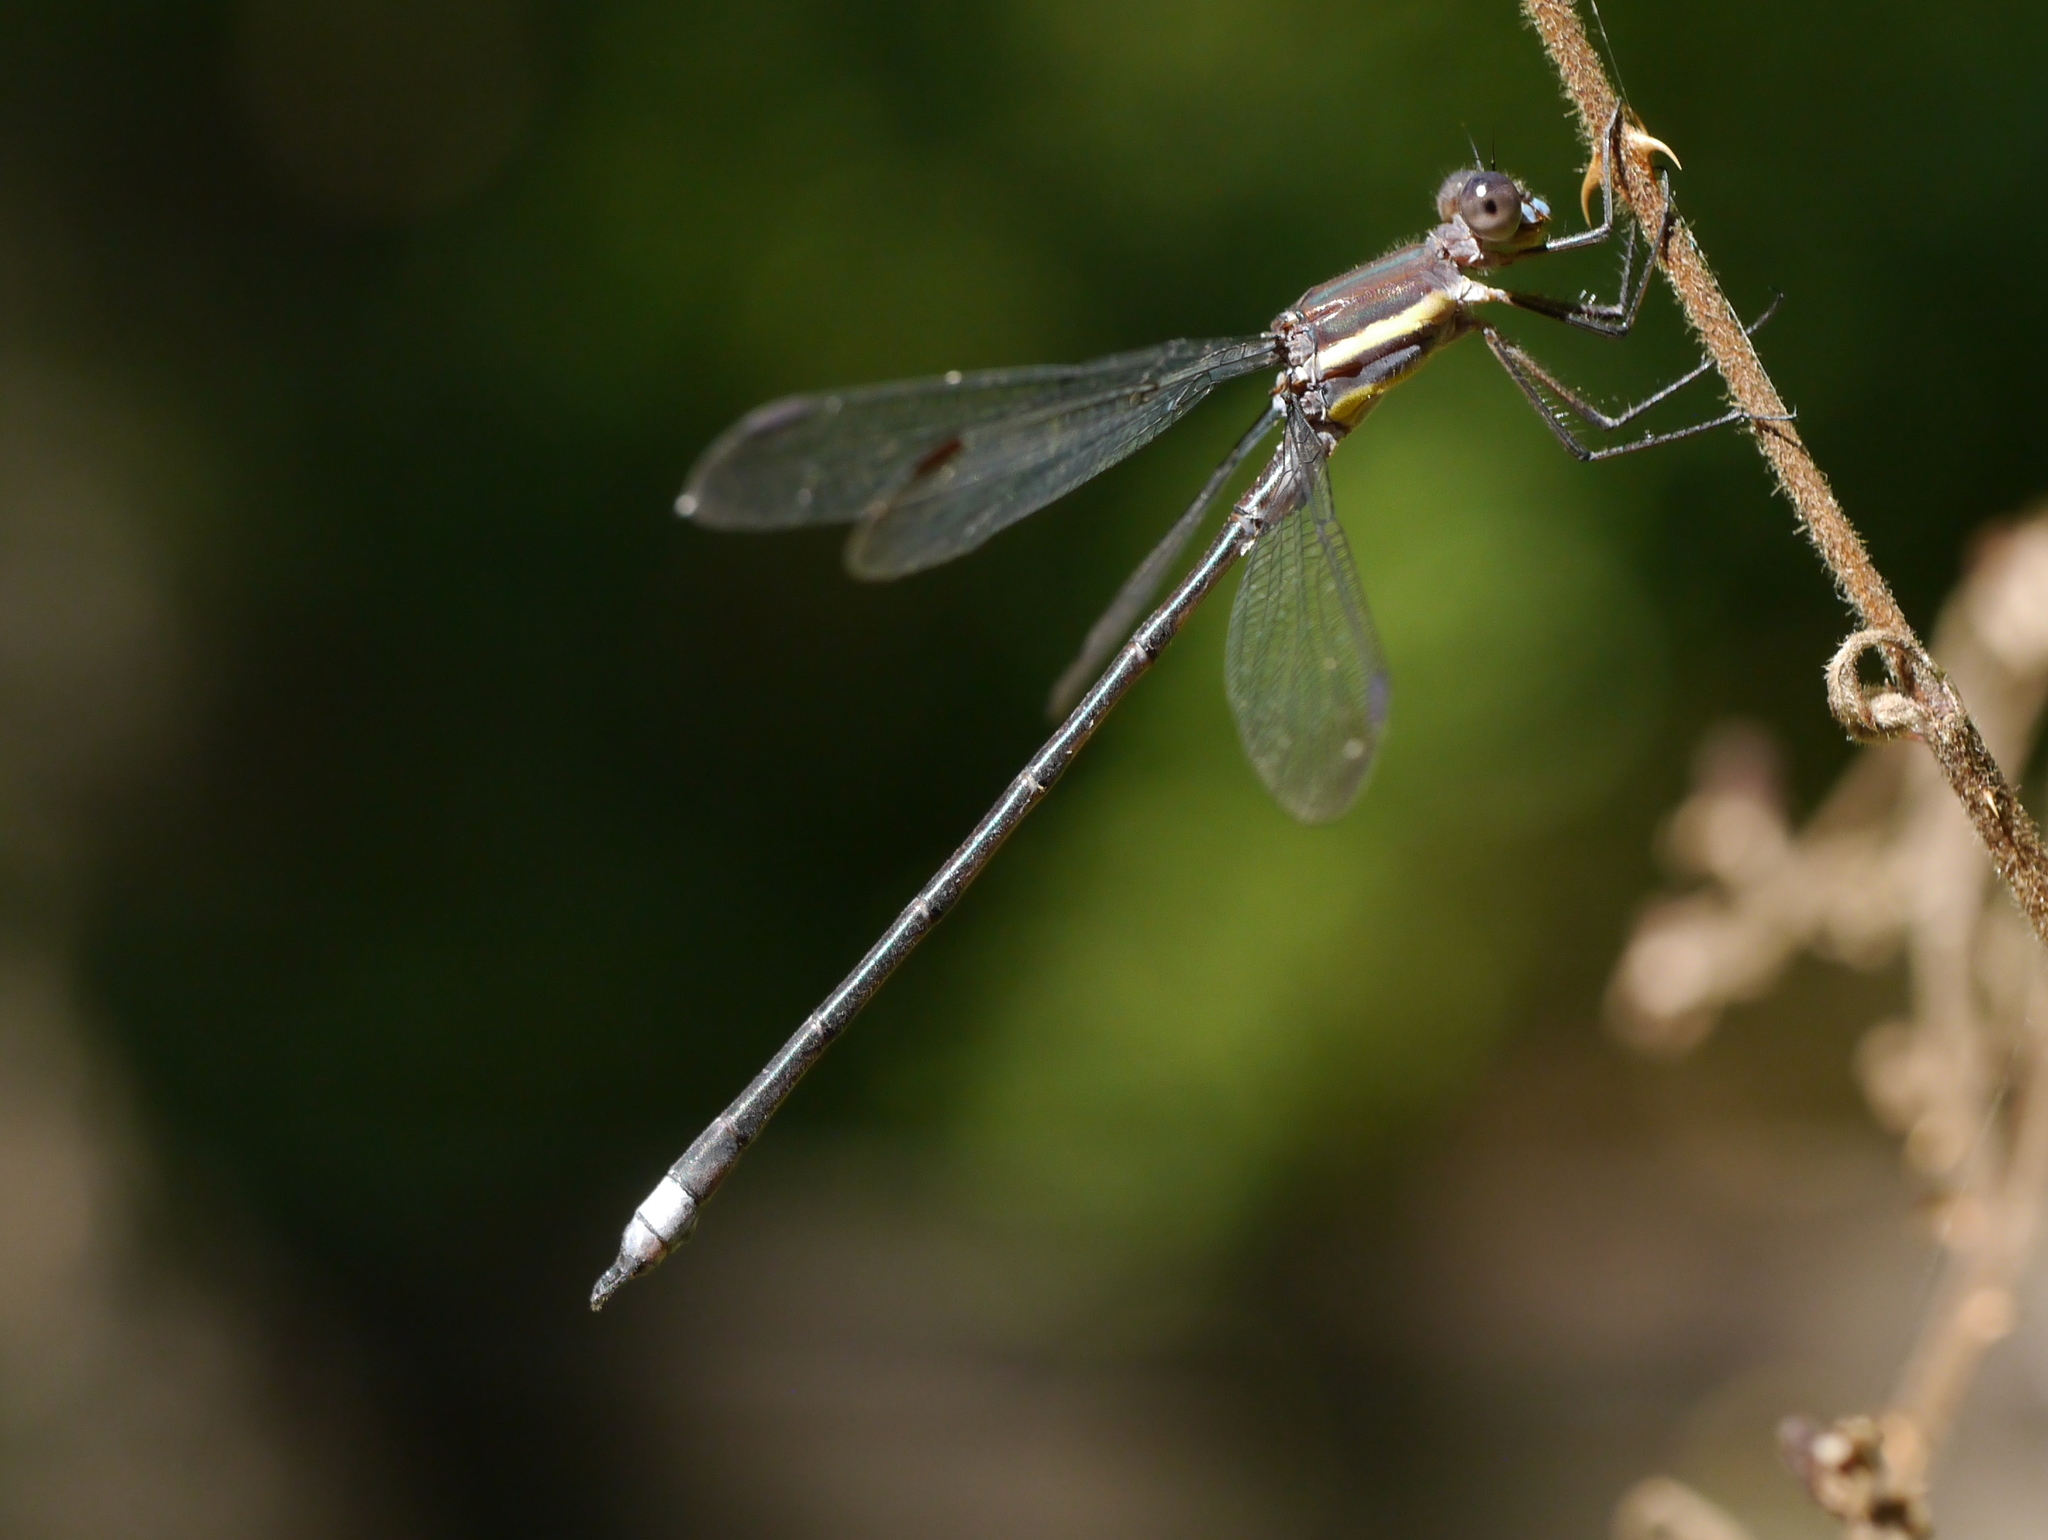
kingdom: Animalia
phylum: Arthropoda
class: Insecta
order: Odonata
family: Lestidae
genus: Archilestes
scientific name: Archilestes grandis
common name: Great spreadwing
